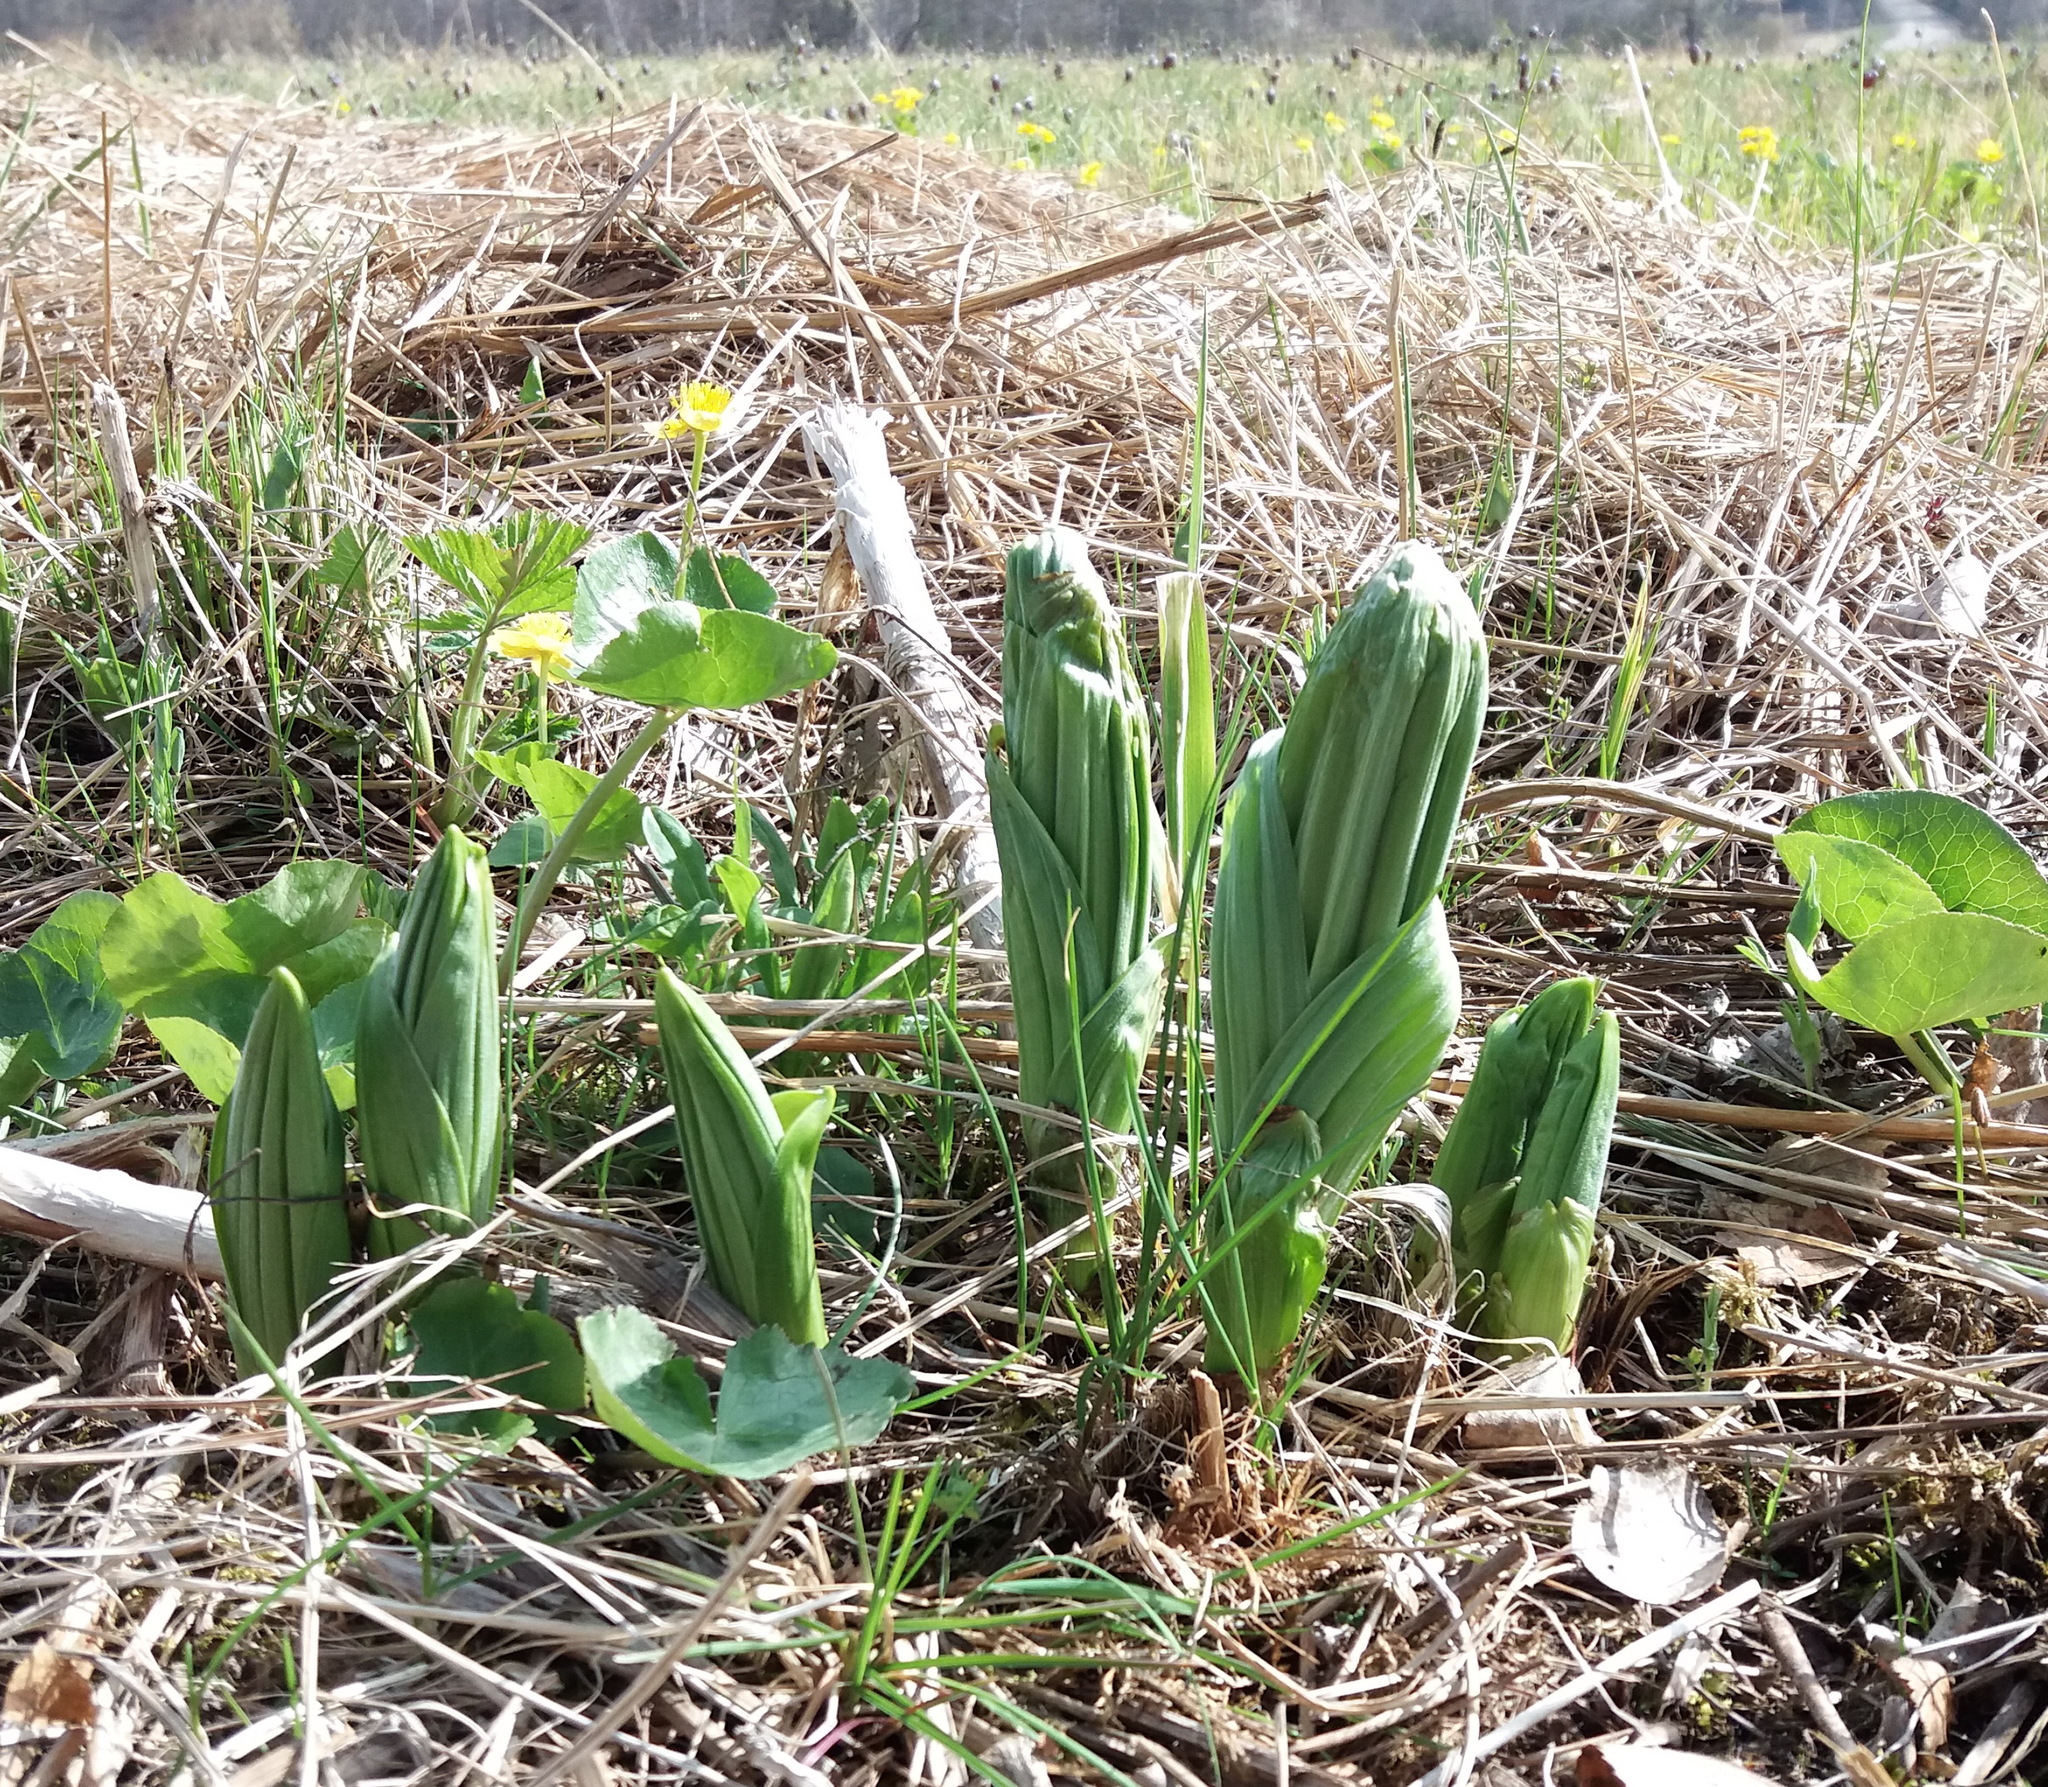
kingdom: Plantae
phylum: Tracheophyta
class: Liliopsida
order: Liliales
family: Melanthiaceae
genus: Veratrum
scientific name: Veratrum lobelianum
